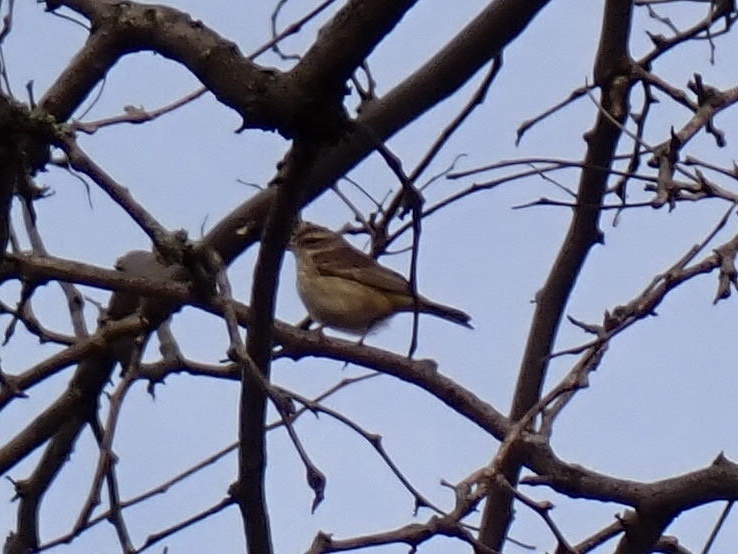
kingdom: Animalia
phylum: Chordata
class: Aves
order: Passeriformes
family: Parulidae
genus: Setophaga
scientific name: Setophaga palmarum
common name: Palm warbler
